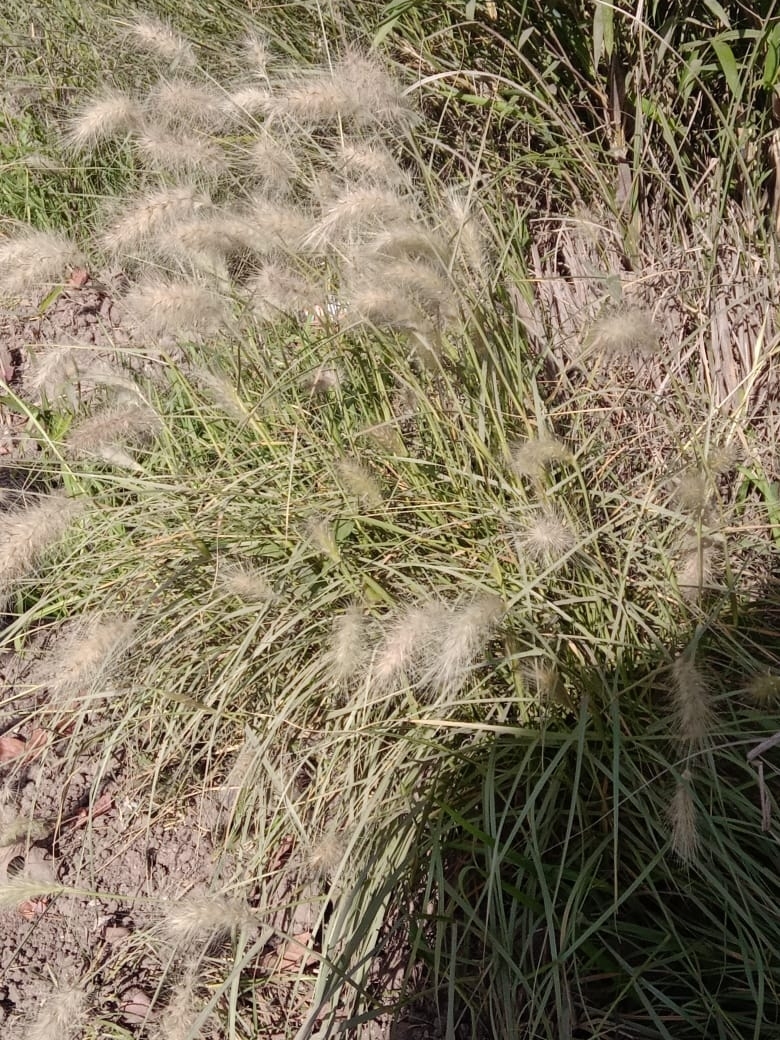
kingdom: Plantae
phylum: Tracheophyta
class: Liliopsida
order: Poales
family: Poaceae
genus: Cenchrus
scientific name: Cenchrus longisetus
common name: Feathertop
